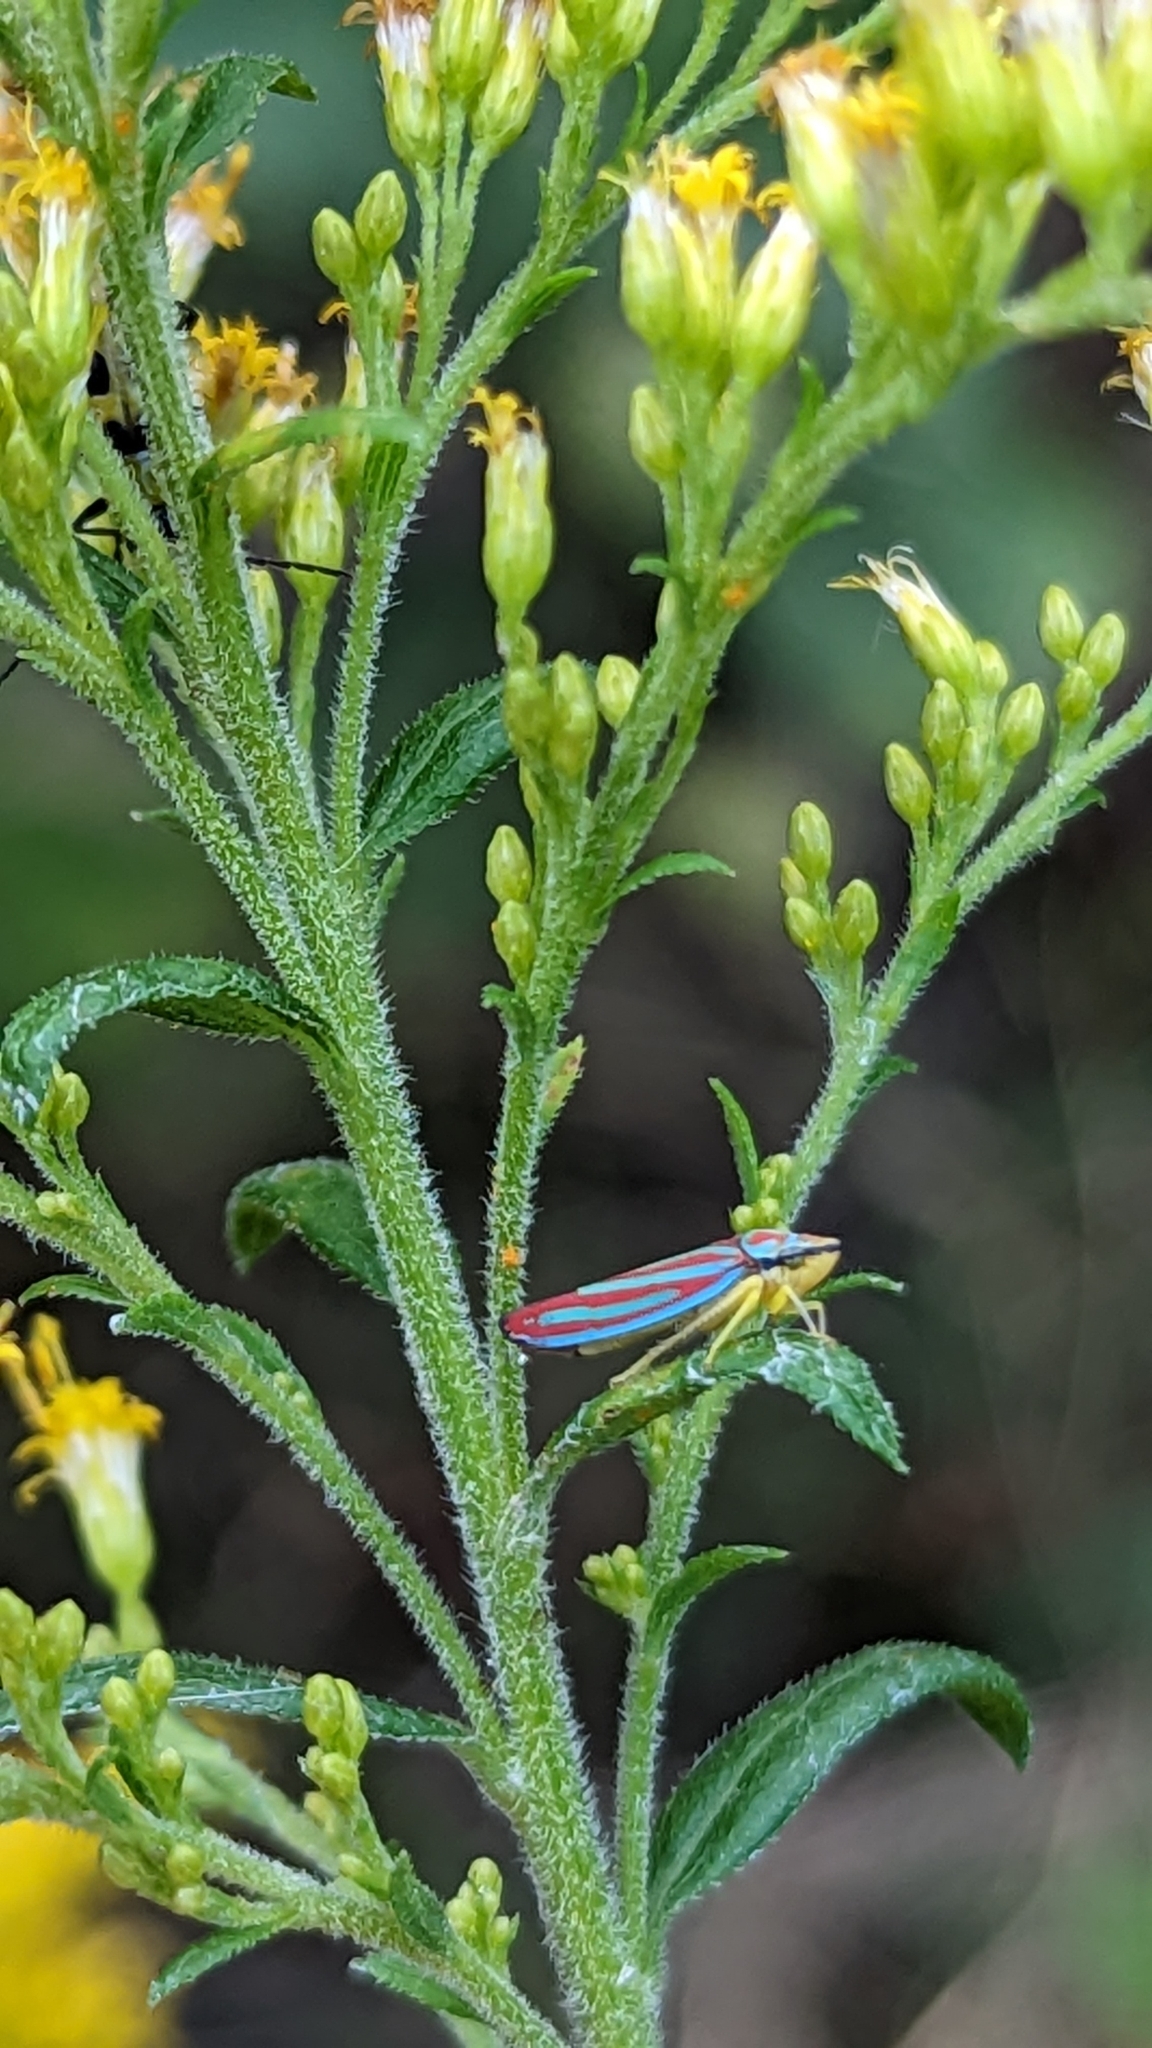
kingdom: Animalia
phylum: Arthropoda
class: Insecta
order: Hemiptera
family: Cicadellidae
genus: Graphocephala
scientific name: Graphocephala coccinea
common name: Candy-striped leafhopper
